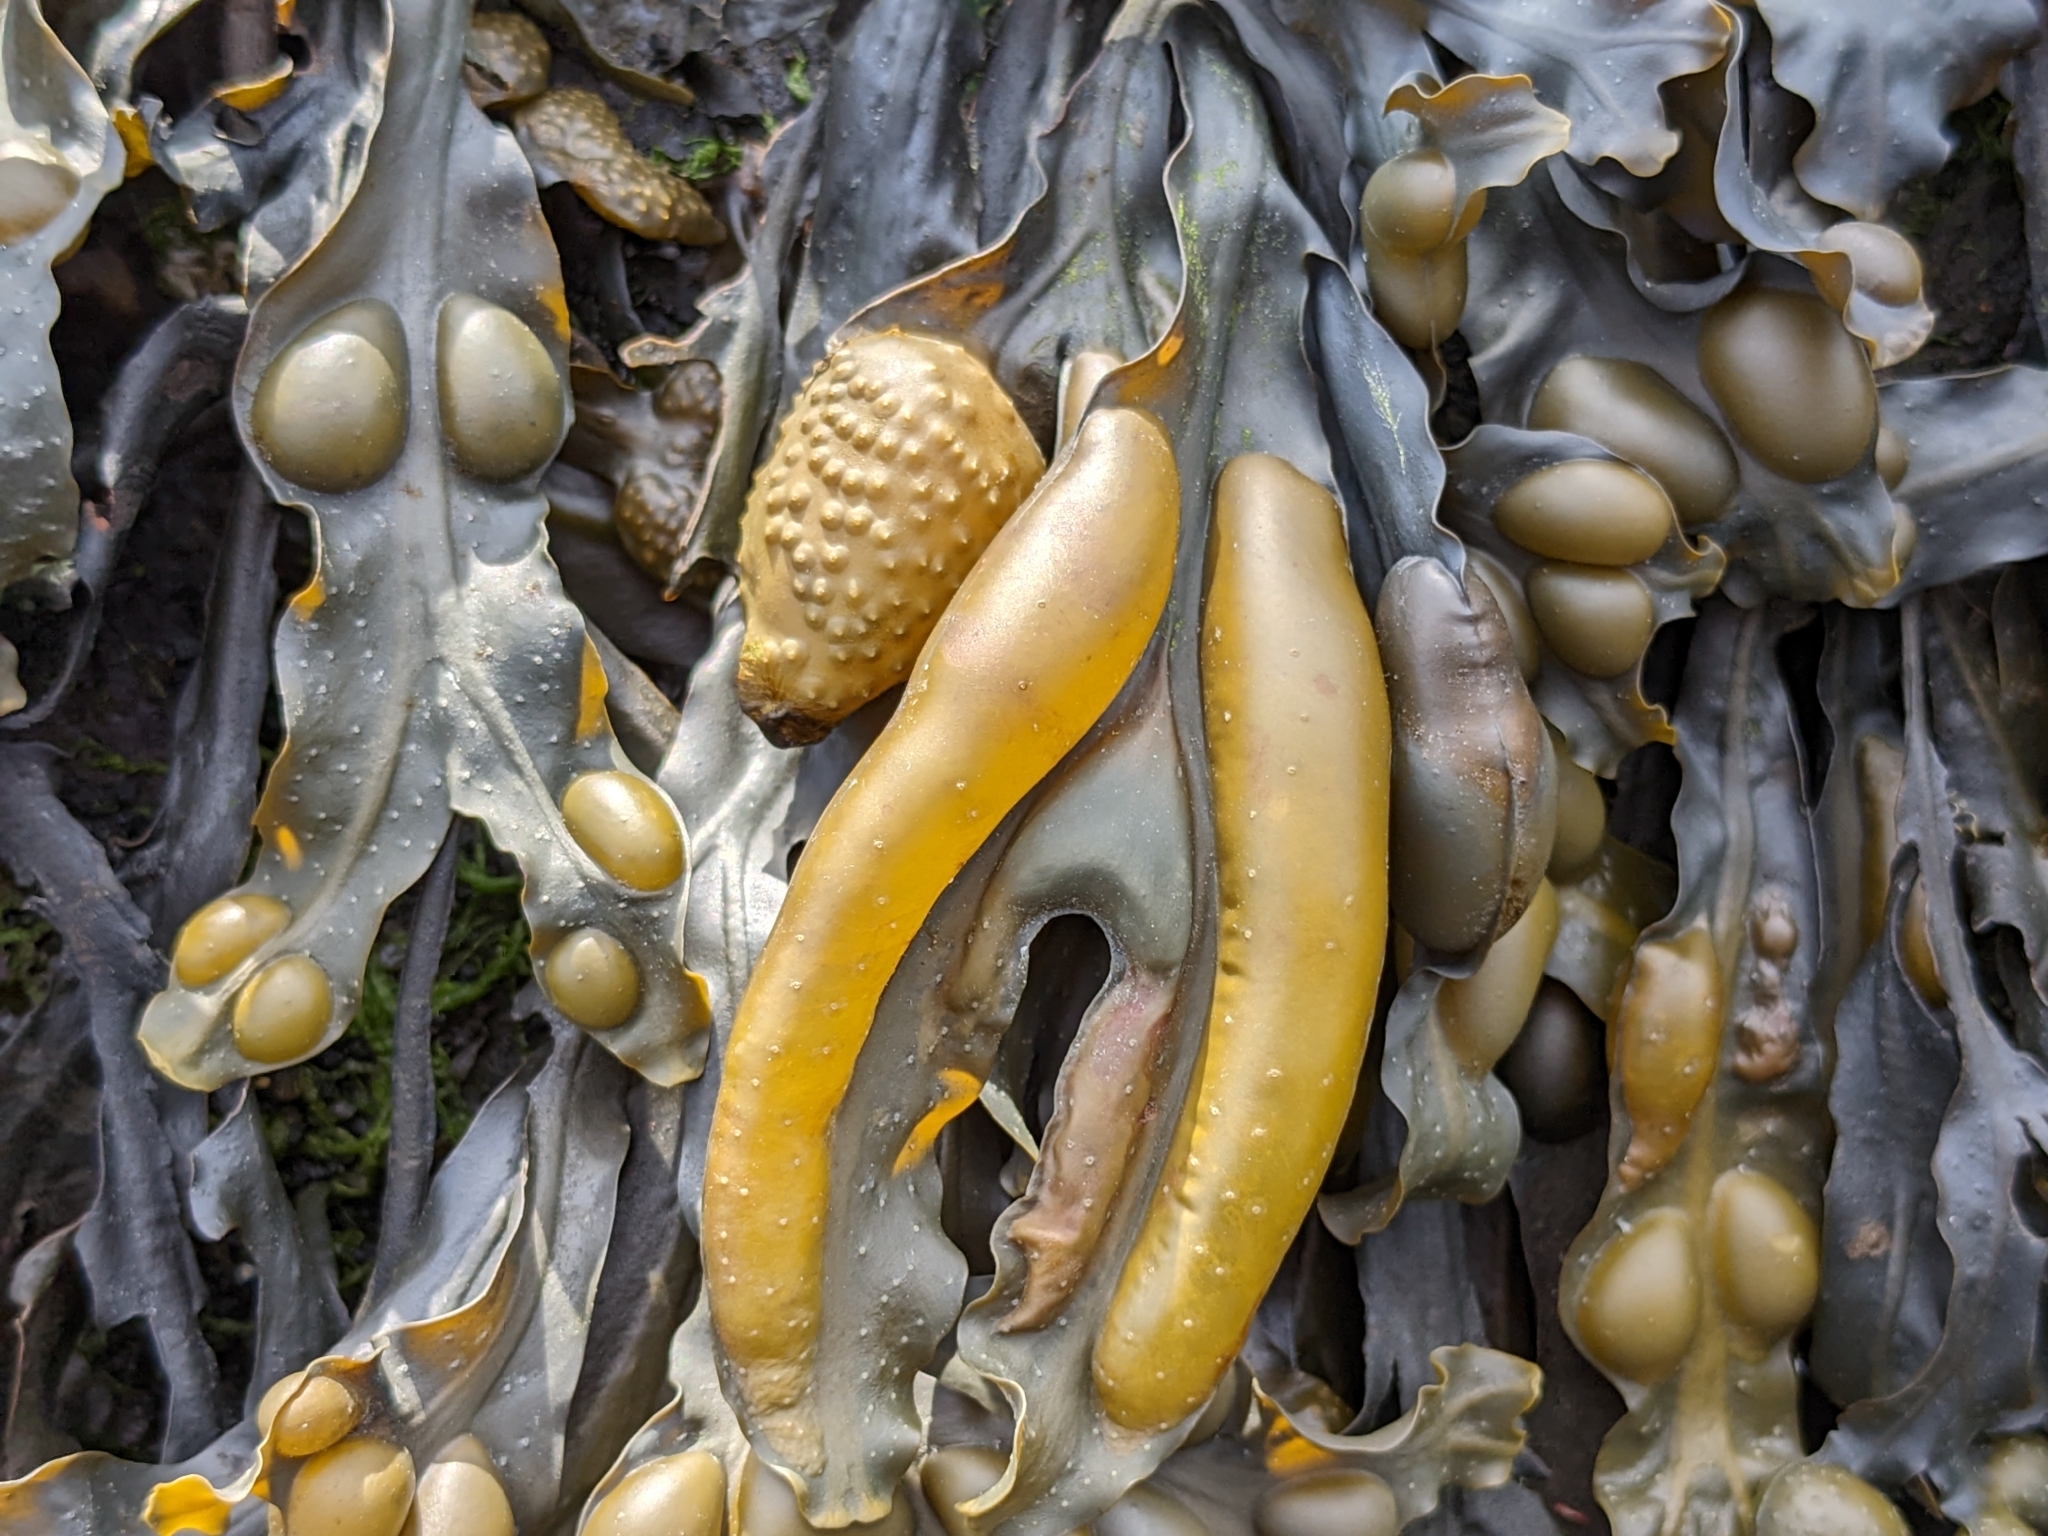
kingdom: Chromista
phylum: Ochrophyta
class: Phaeophyceae
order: Fucales
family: Fucaceae
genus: Fucus
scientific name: Fucus vesiculosus
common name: Bladder wrack
